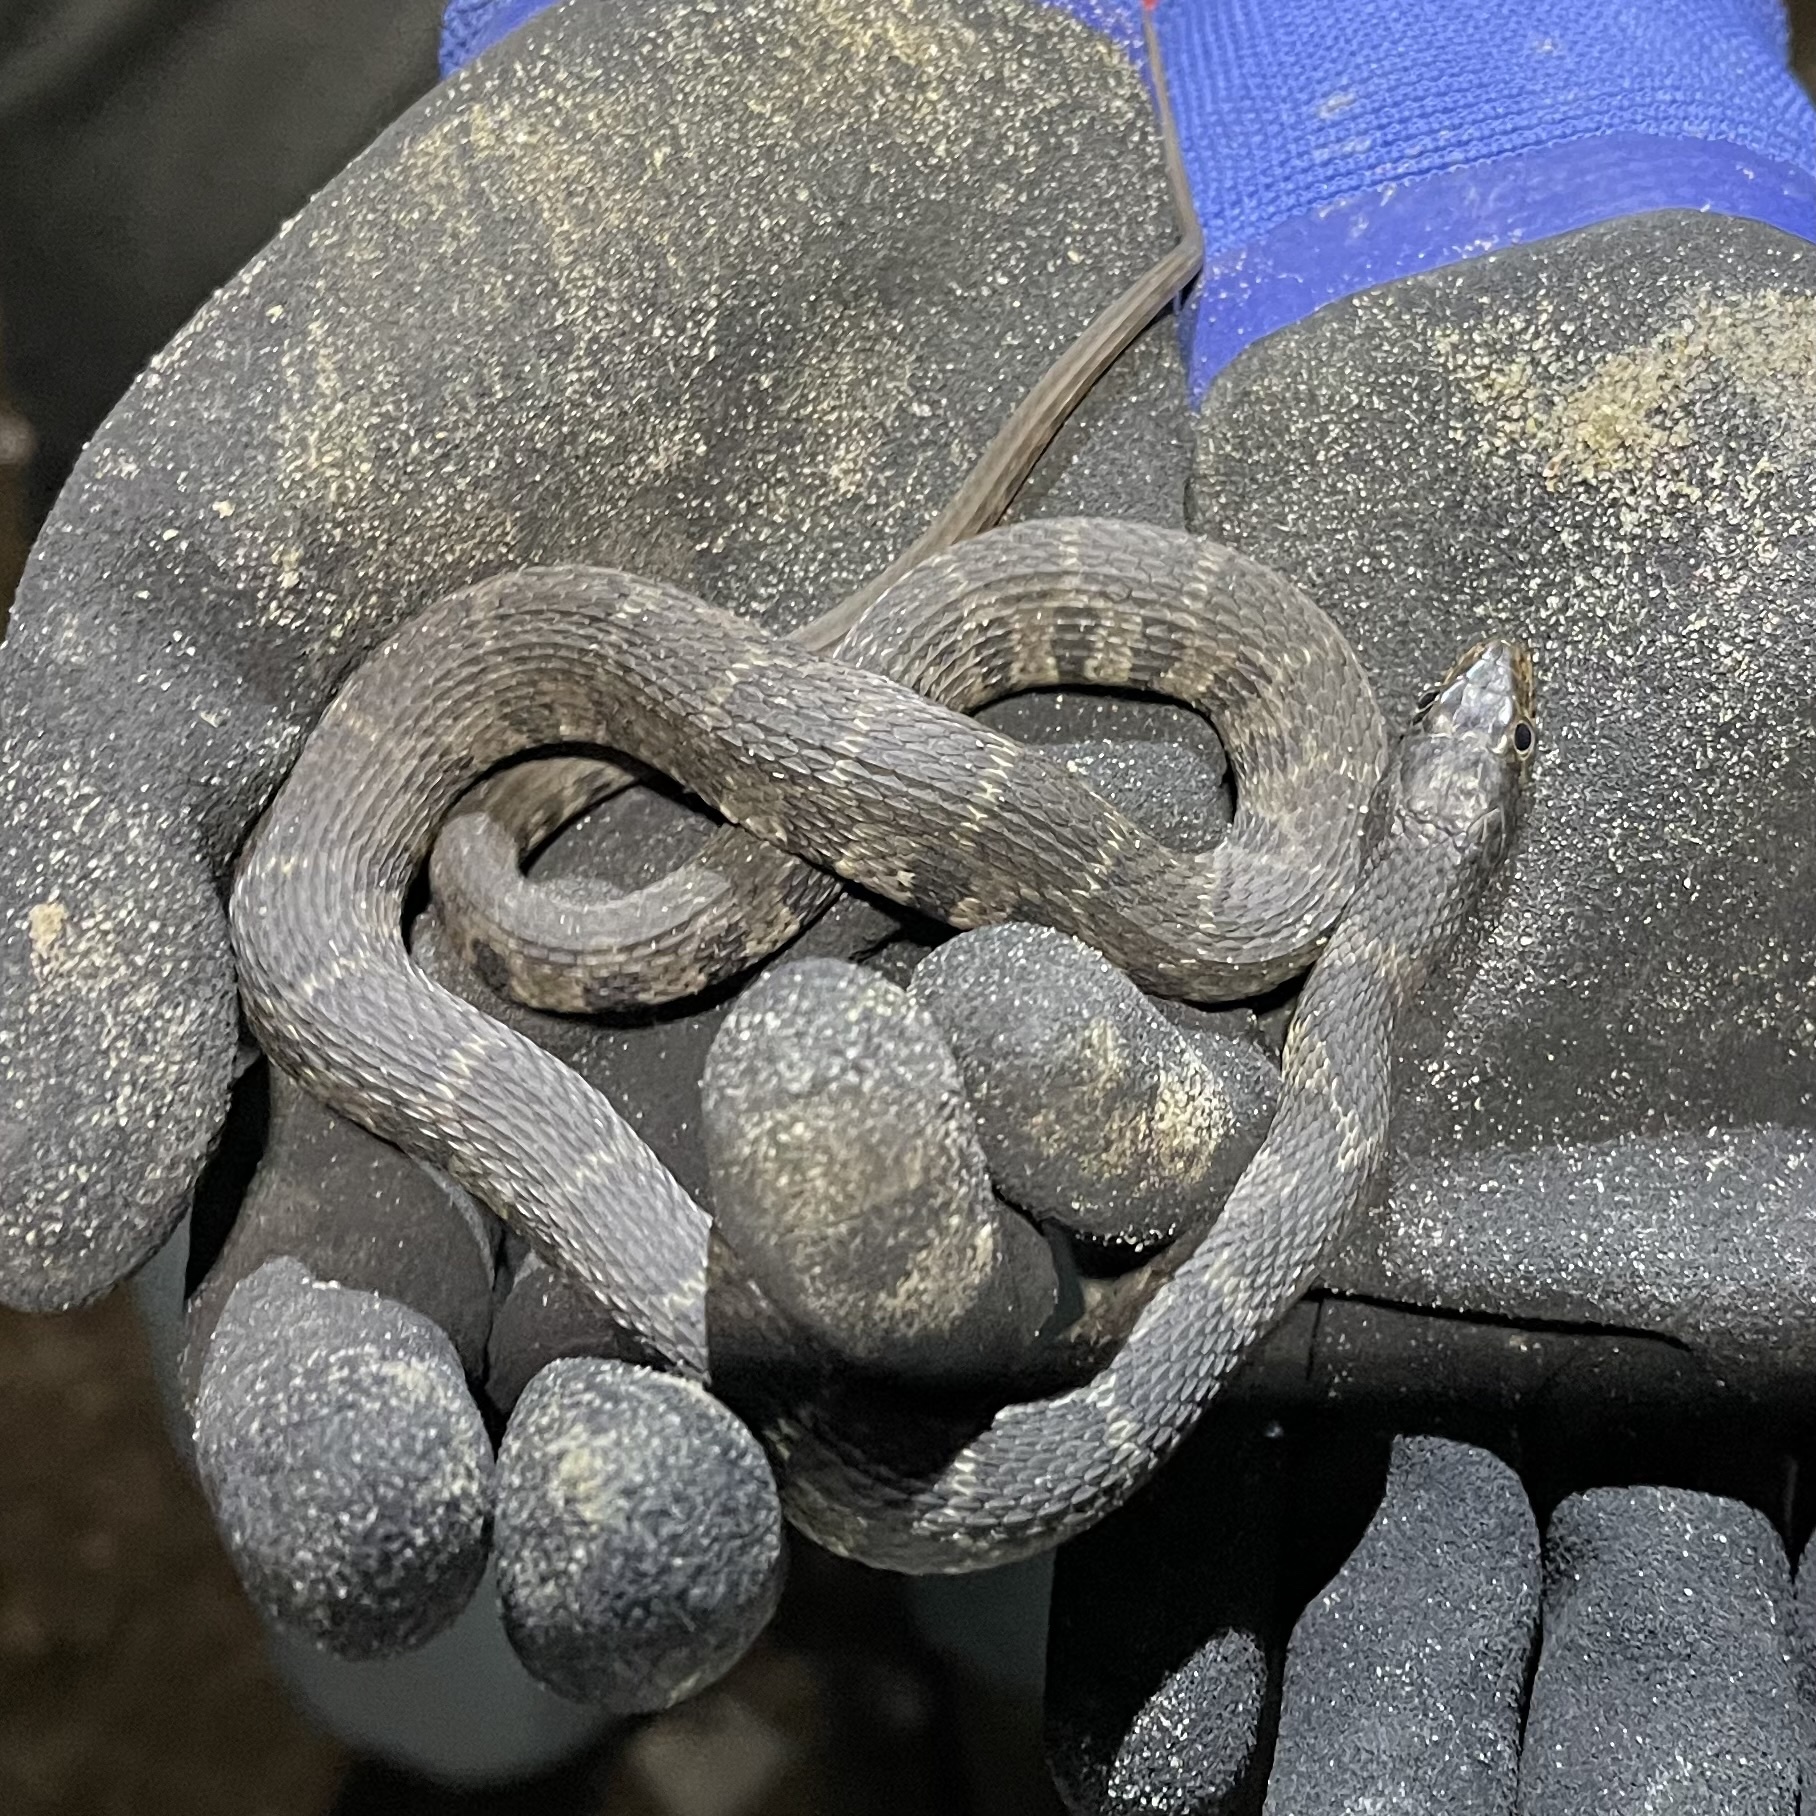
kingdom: Animalia
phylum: Chordata
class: Squamata
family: Colubridae
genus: Nerodia
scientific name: Nerodia erythrogaster
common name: Plainbelly water snake
